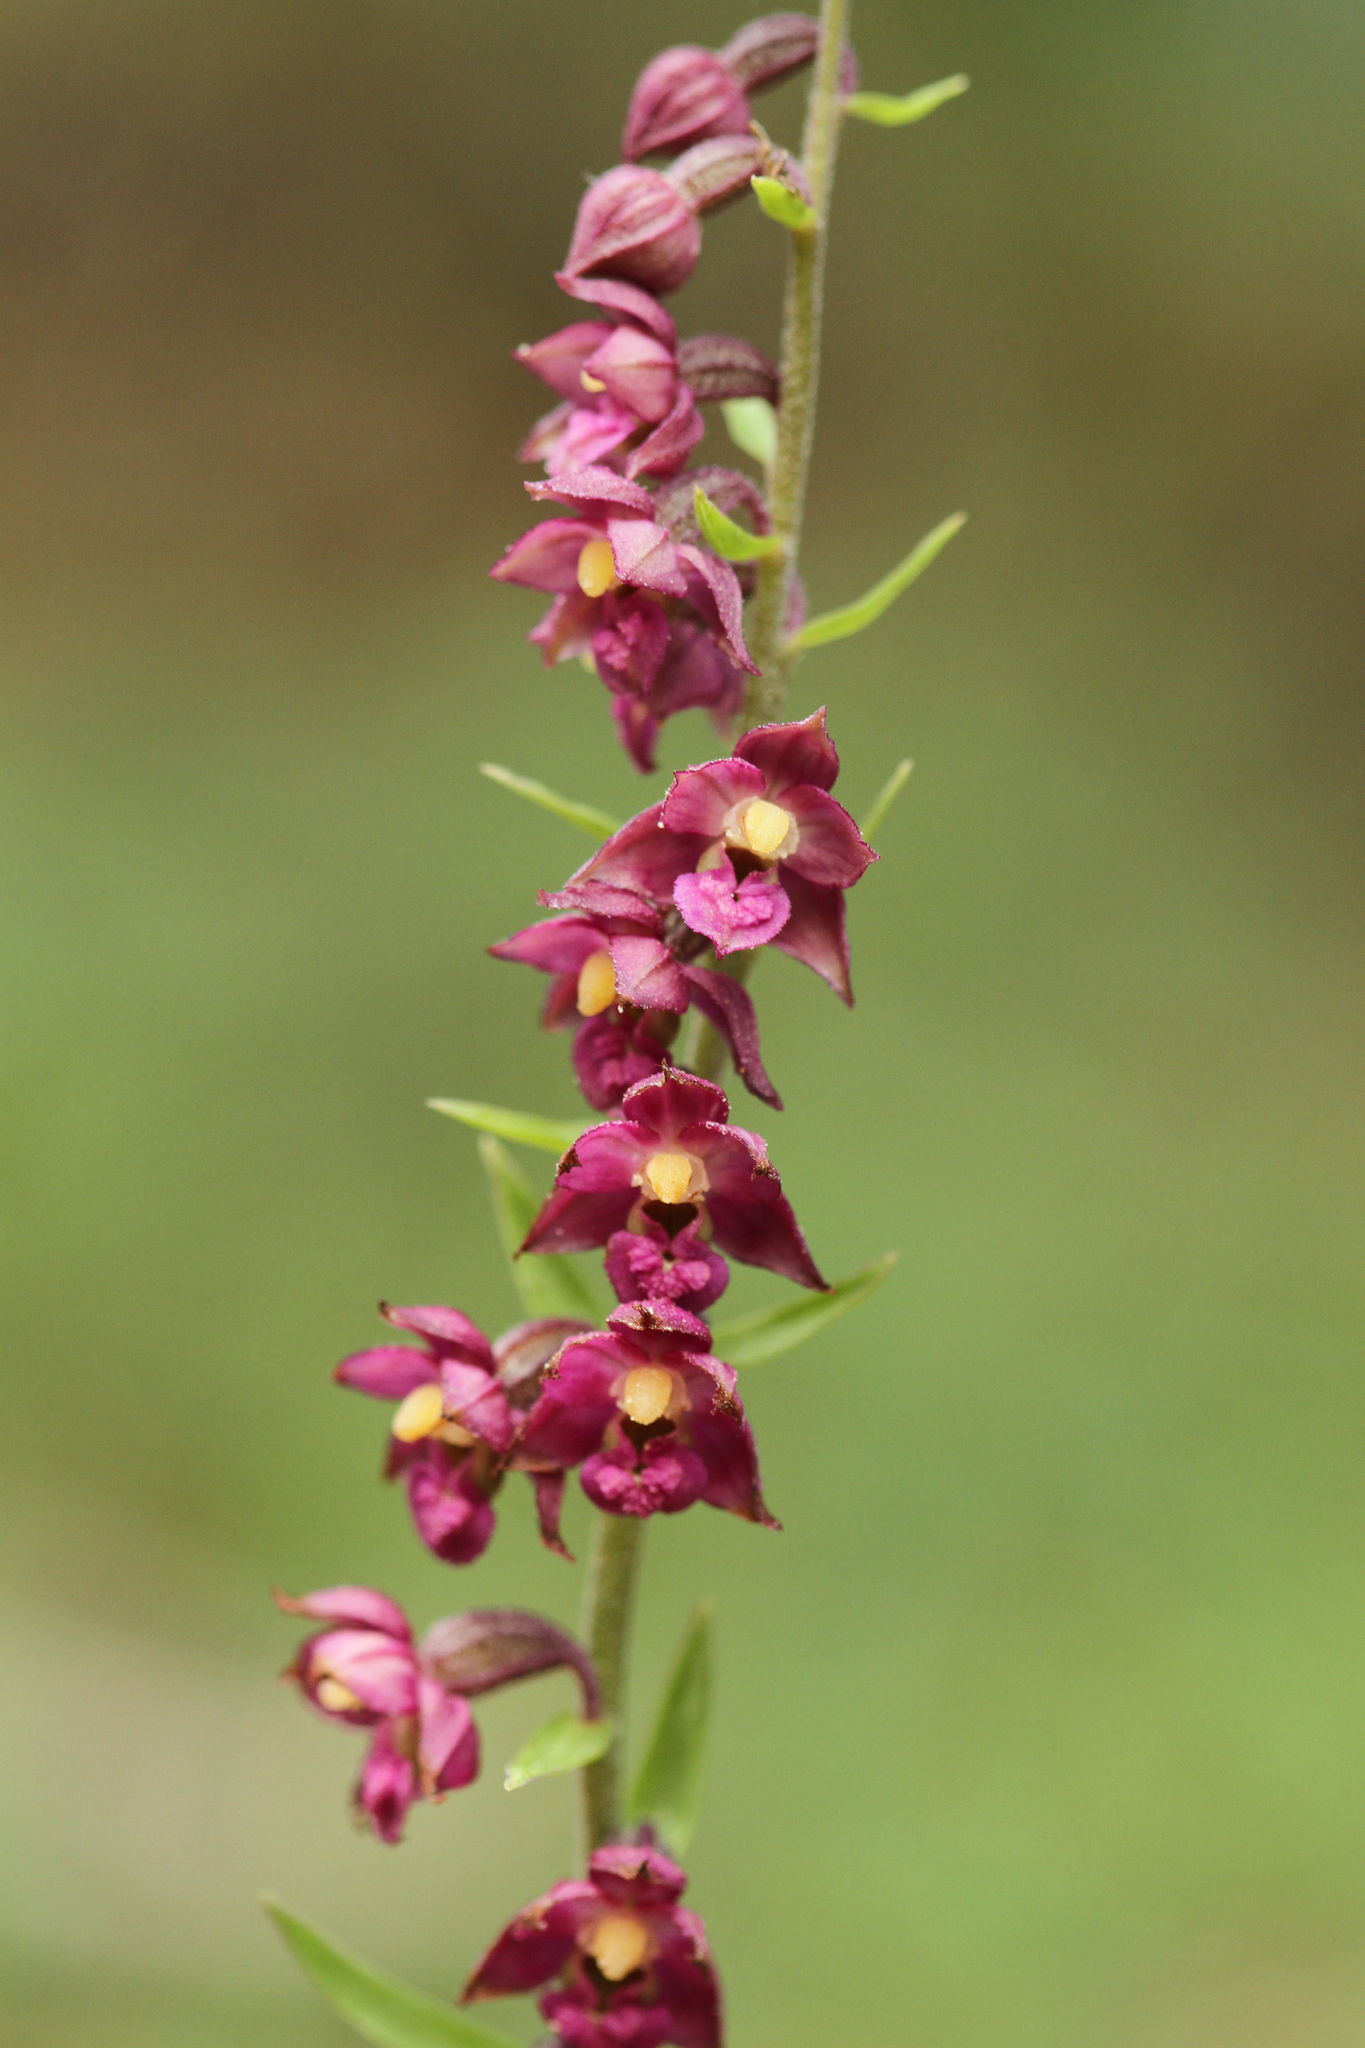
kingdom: Plantae
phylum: Tracheophyta
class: Liliopsida
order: Asparagales
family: Orchidaceae
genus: Epipactis
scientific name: Epipactis atrorubens
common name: Dark-red helleborine
